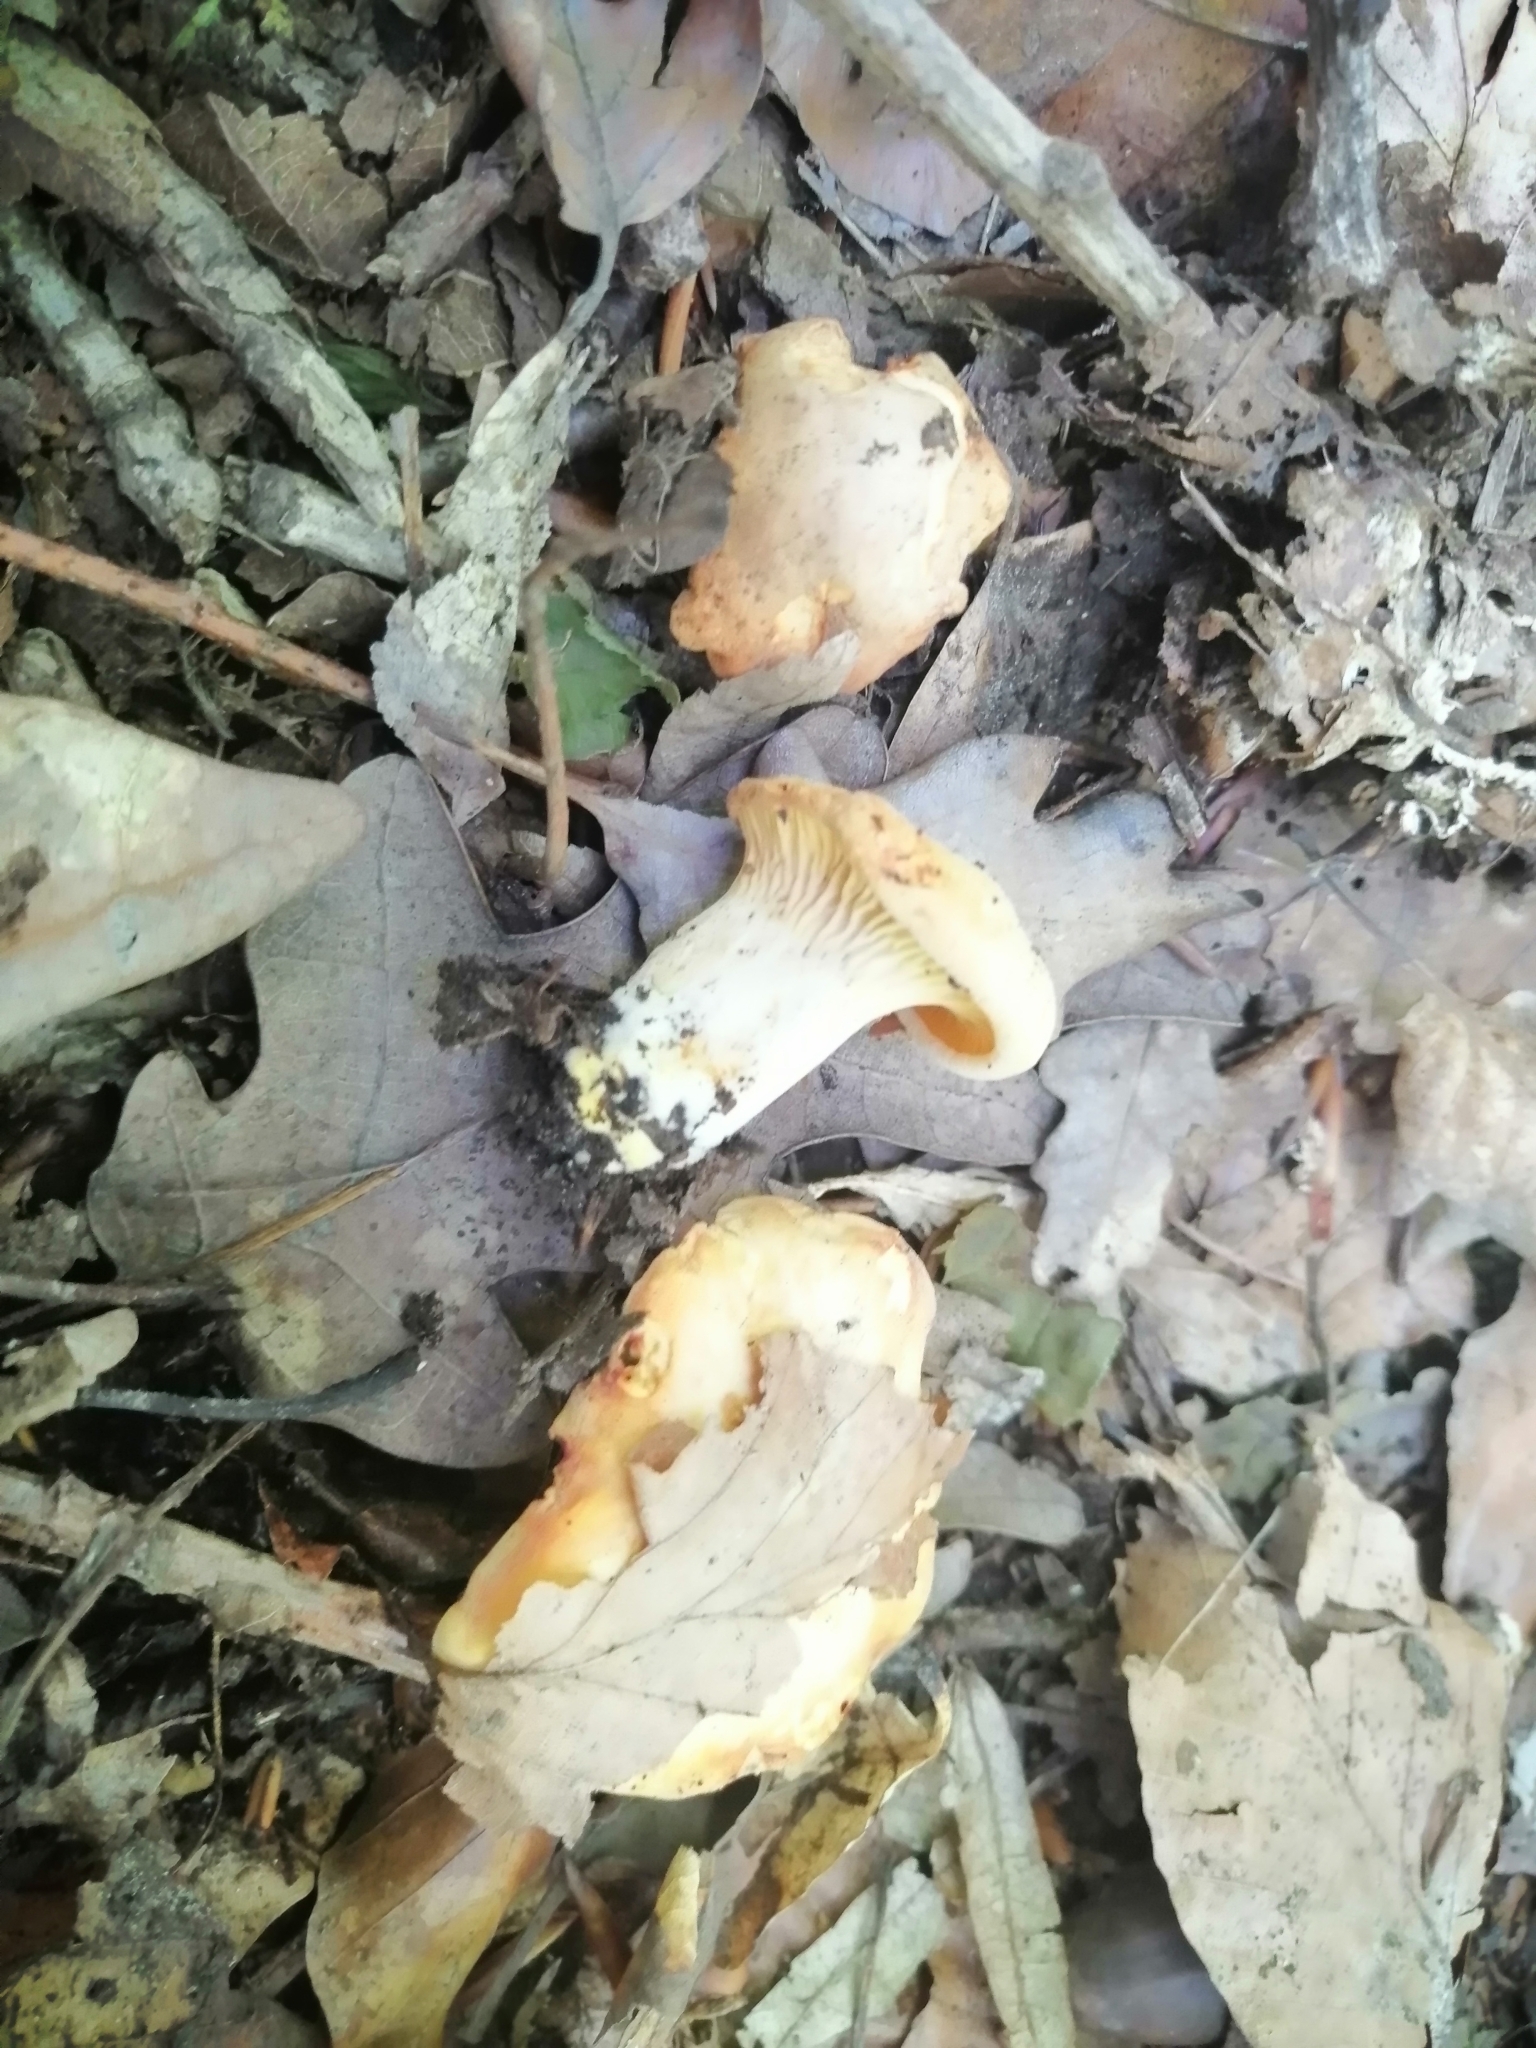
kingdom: Fungi
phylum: Basidiomycota
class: Agaricomycetes
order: Cantharellales
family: Hydnaceae
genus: Cantharellus
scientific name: Cantharellus pallens
